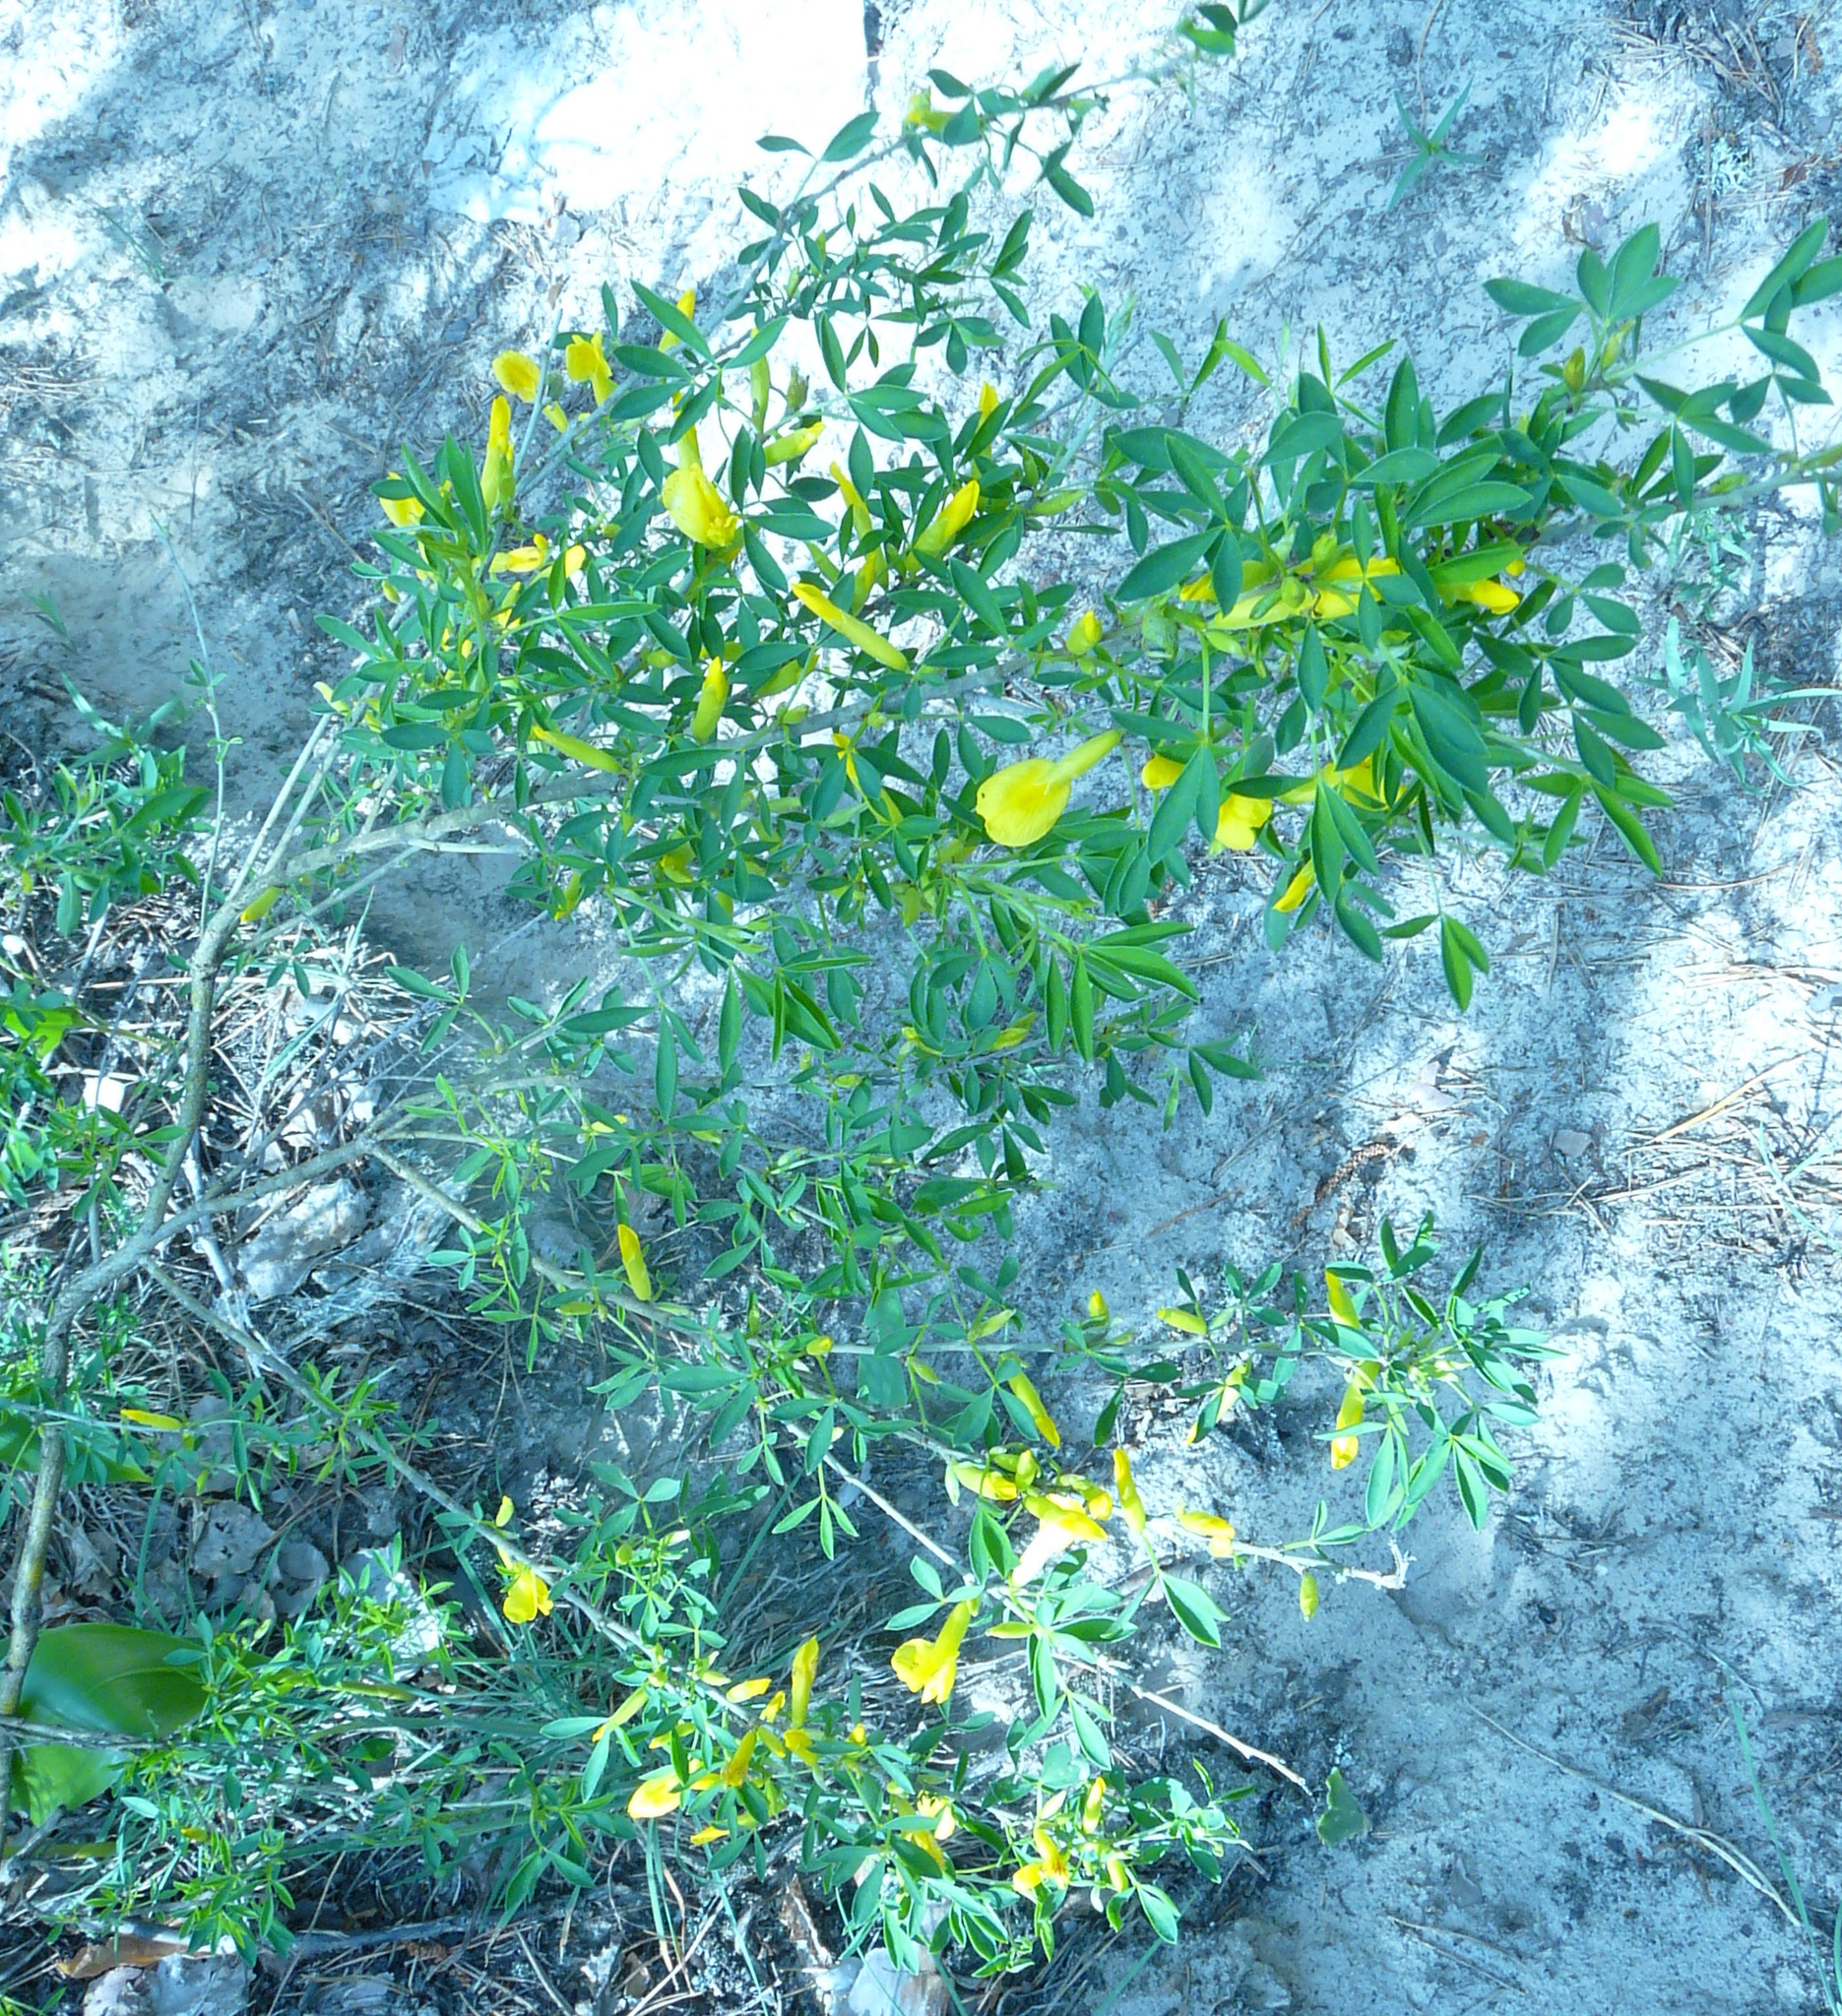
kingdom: Plantae
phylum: Tracheophyta
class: Magnoliopsida
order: Fabales
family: Fabaceae
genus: Chamaecytisus
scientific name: Chamaecytisus ruthenicus
